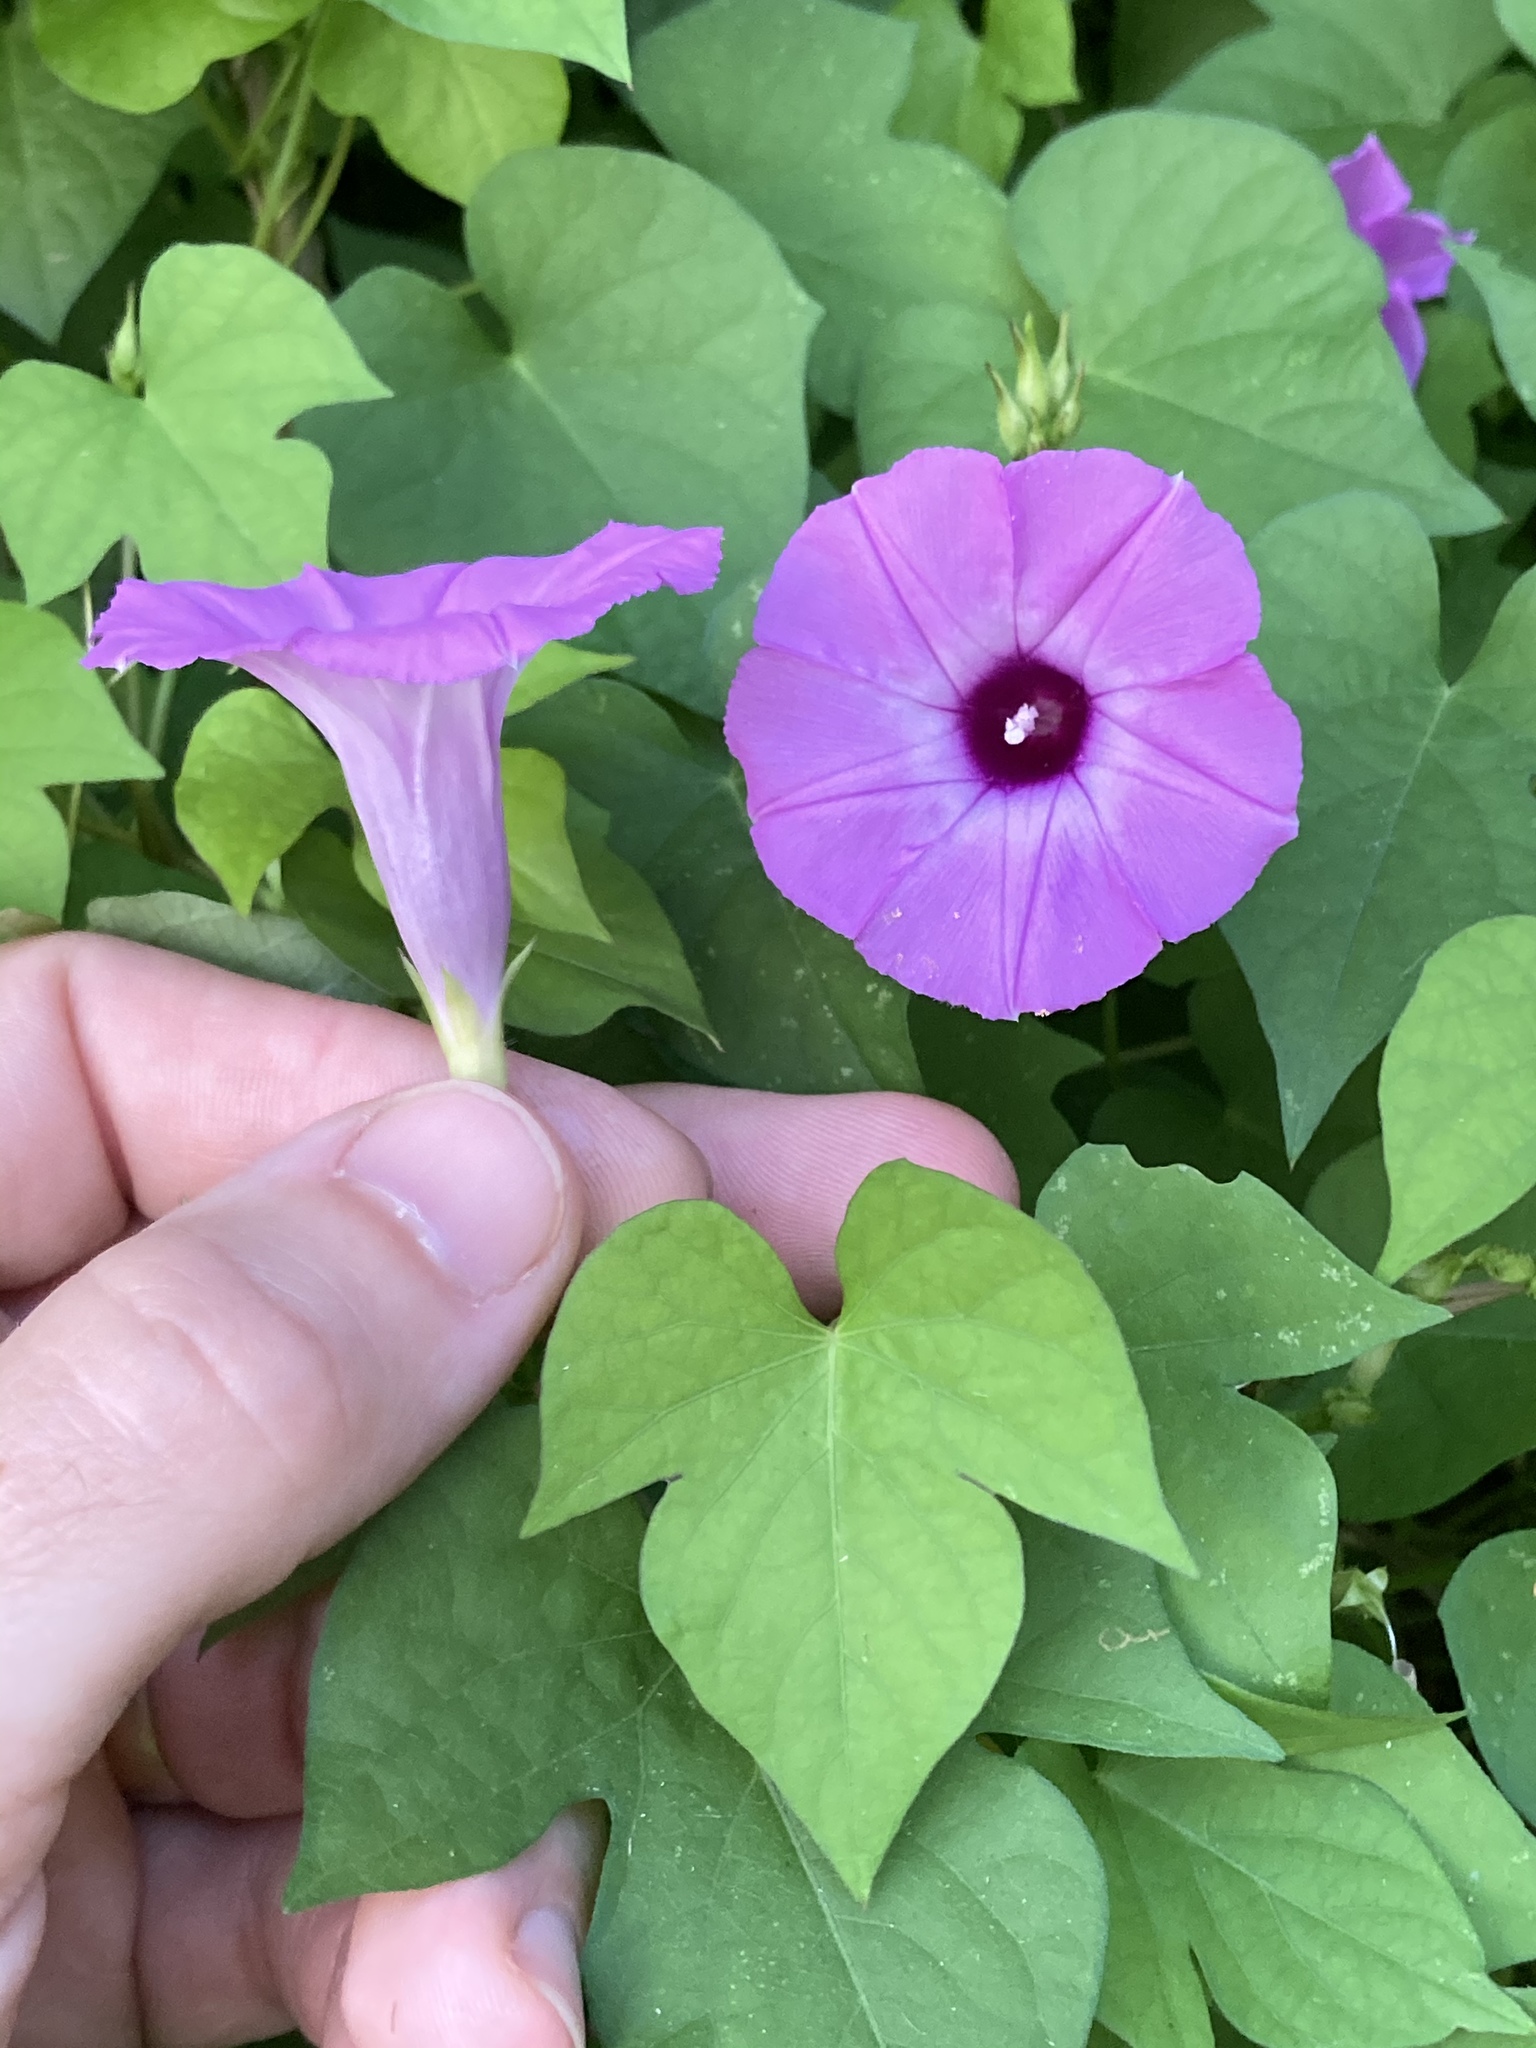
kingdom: Plantae
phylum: Tracheophyta
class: Magnoliopsida
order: Solanales
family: Convolvulaceae
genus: Ipomoea
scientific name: Ipomoea cordatotriloba
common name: Cotton morning glory
